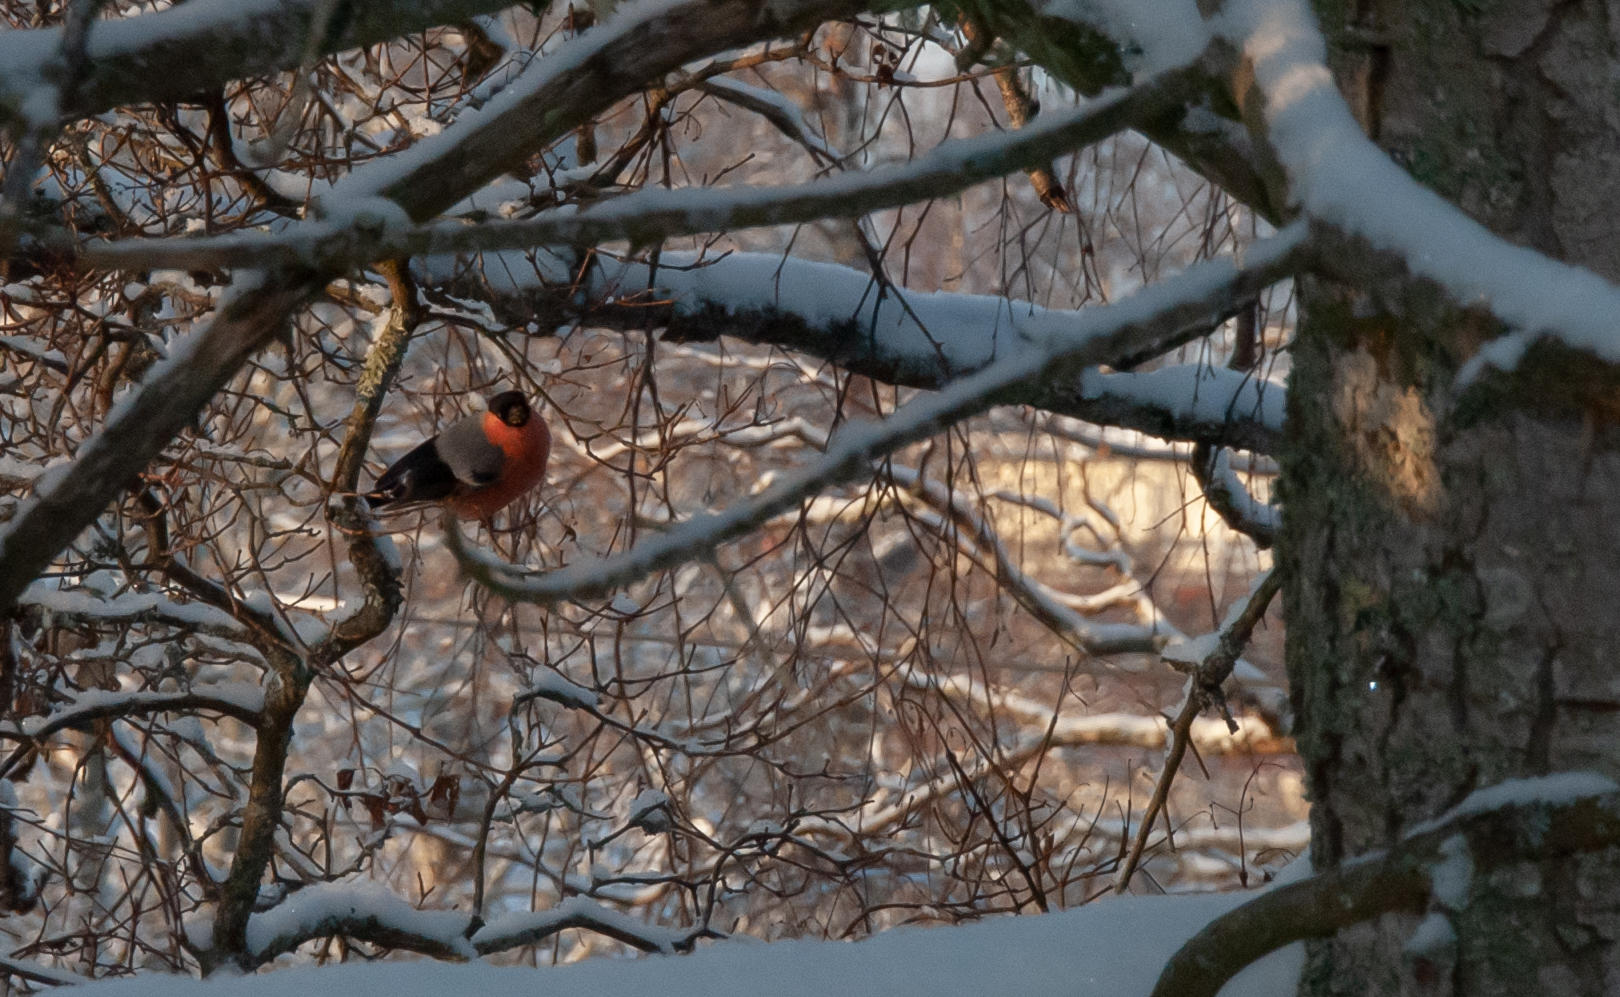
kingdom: Animalia
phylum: Chordata
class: Aves
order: Passeriformes
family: Fringillidae
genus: Pyrrhula
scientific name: Pyrrhula pyrrhula
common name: Eurasian bullfinch
